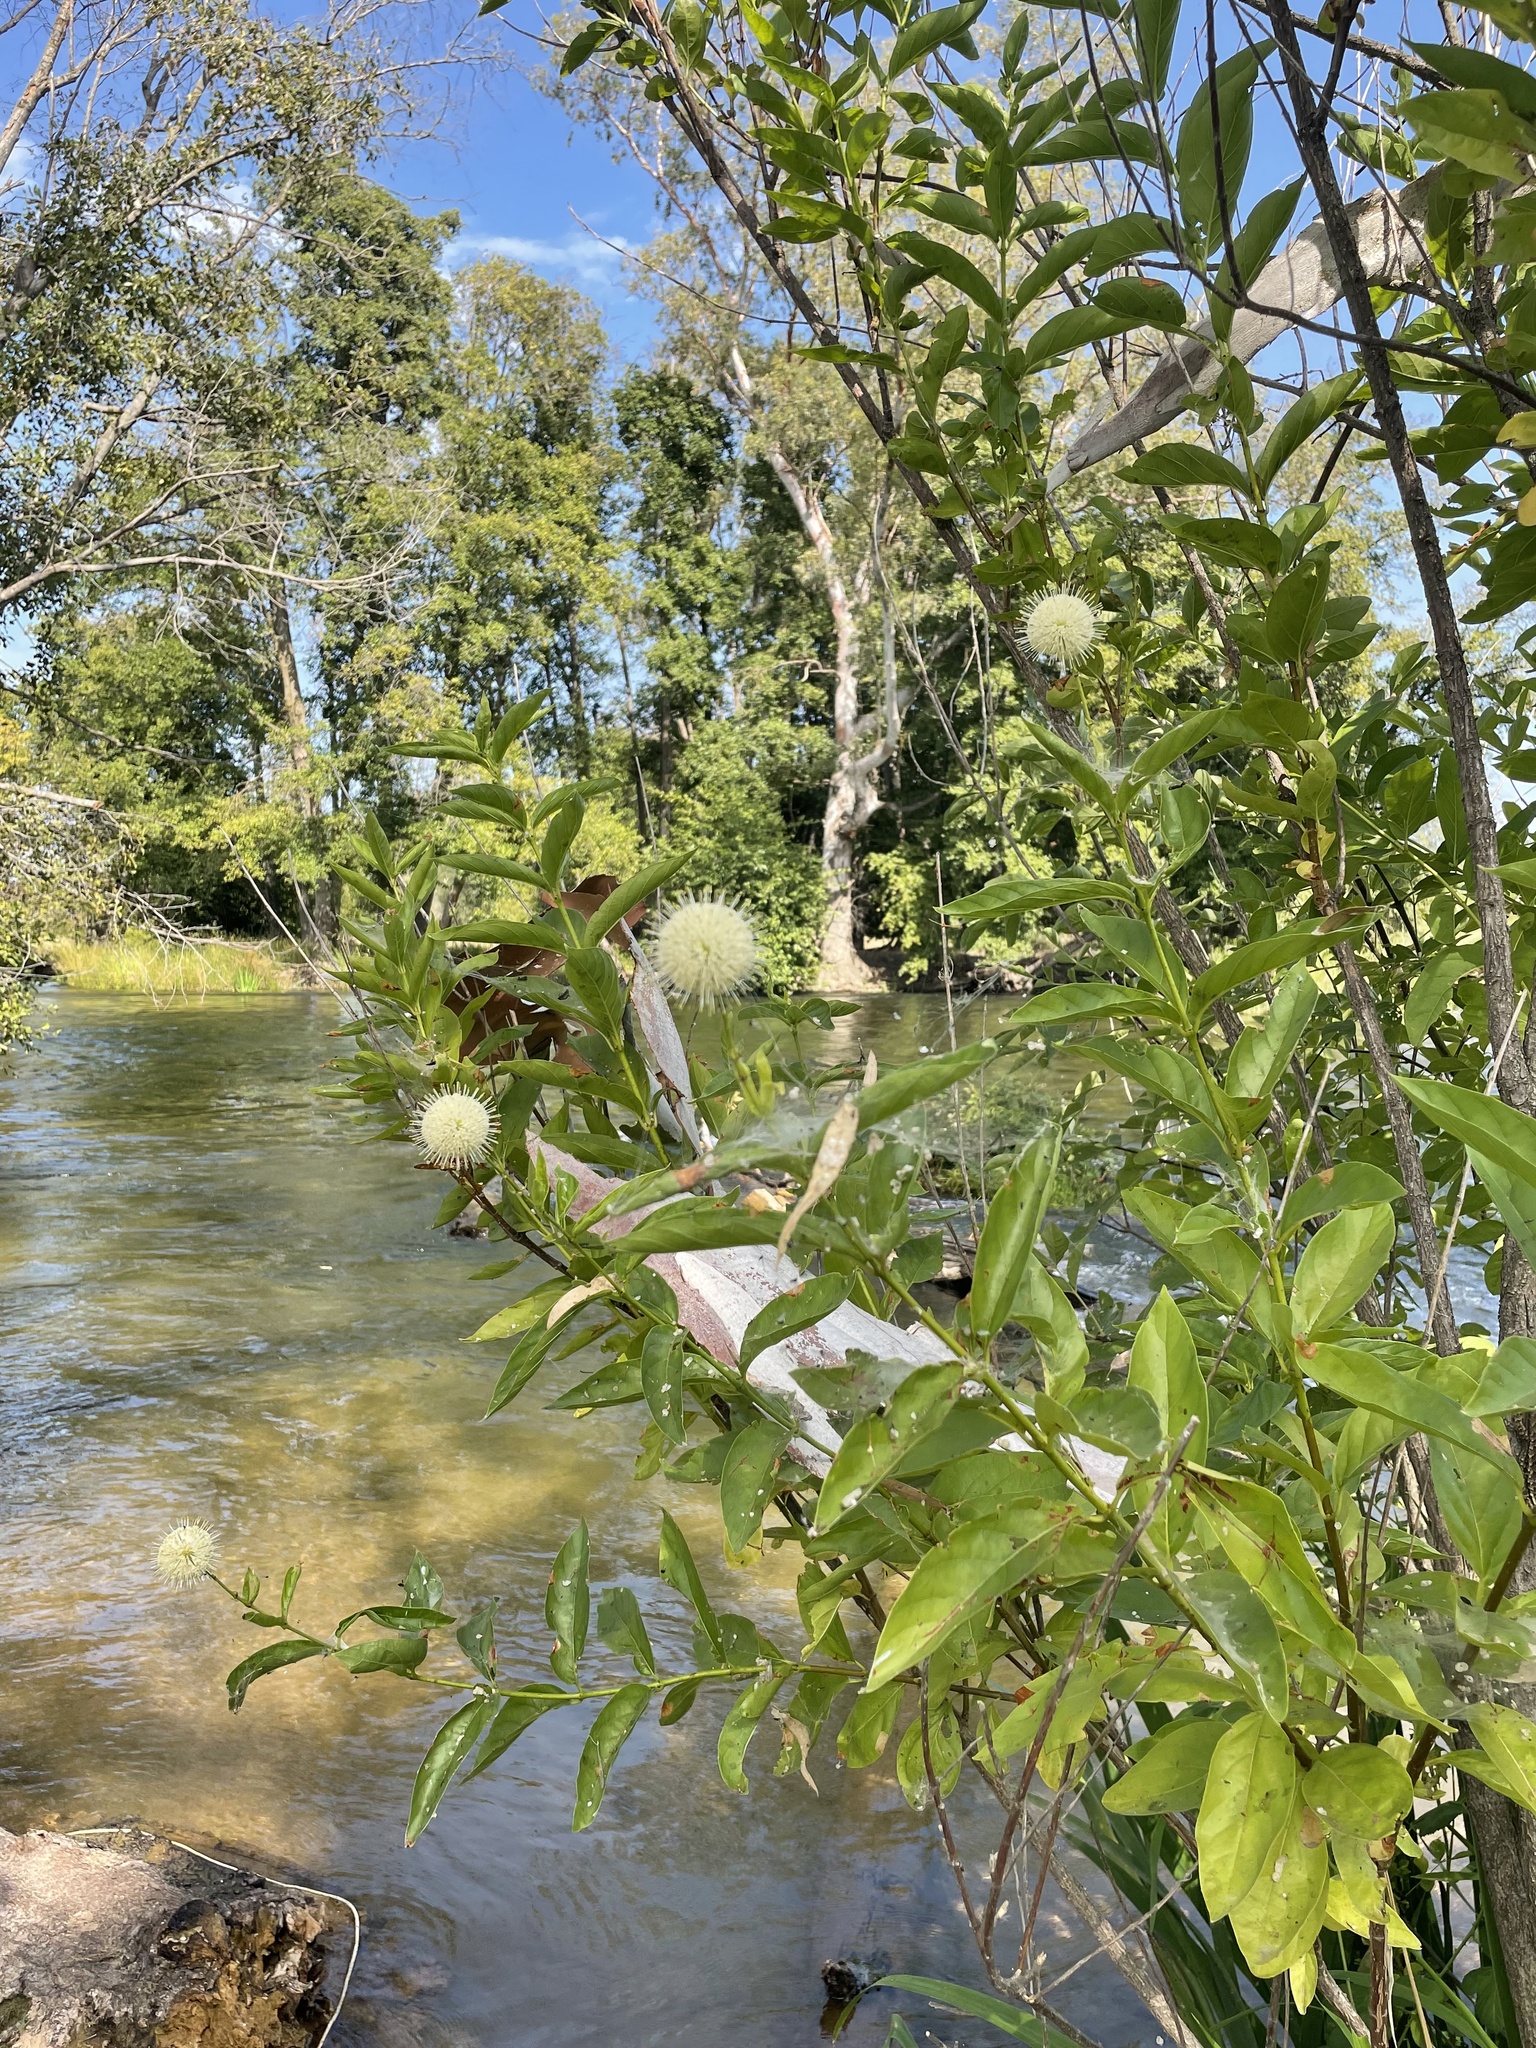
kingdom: Plantae
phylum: Tracheophyta
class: Magnoliopsida
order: Gentianales
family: Rubiaceae
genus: Cephalanthus
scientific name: Cephalanthus occidentalis
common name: Button-willow
